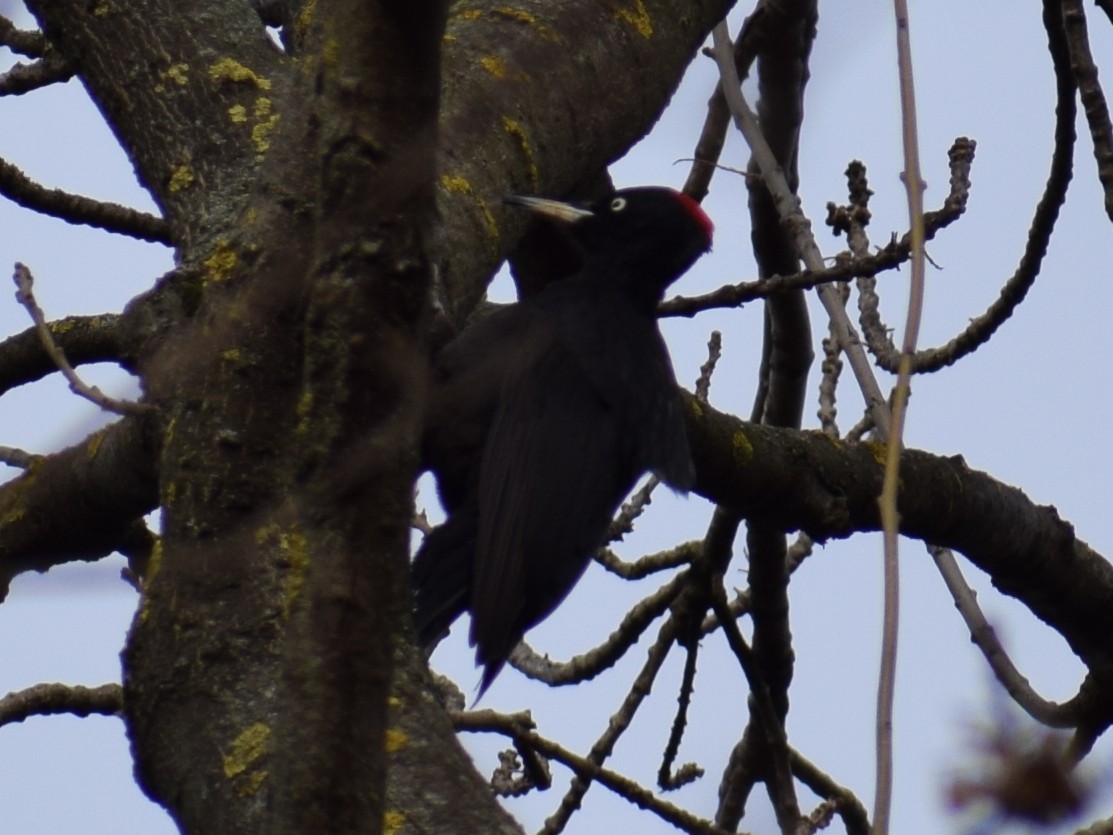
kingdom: Animalia
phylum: Chordata
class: Aves
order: Piciformes
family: Picidae
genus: Dryocopus
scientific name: Dryocopus martius
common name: Black woodpecker
